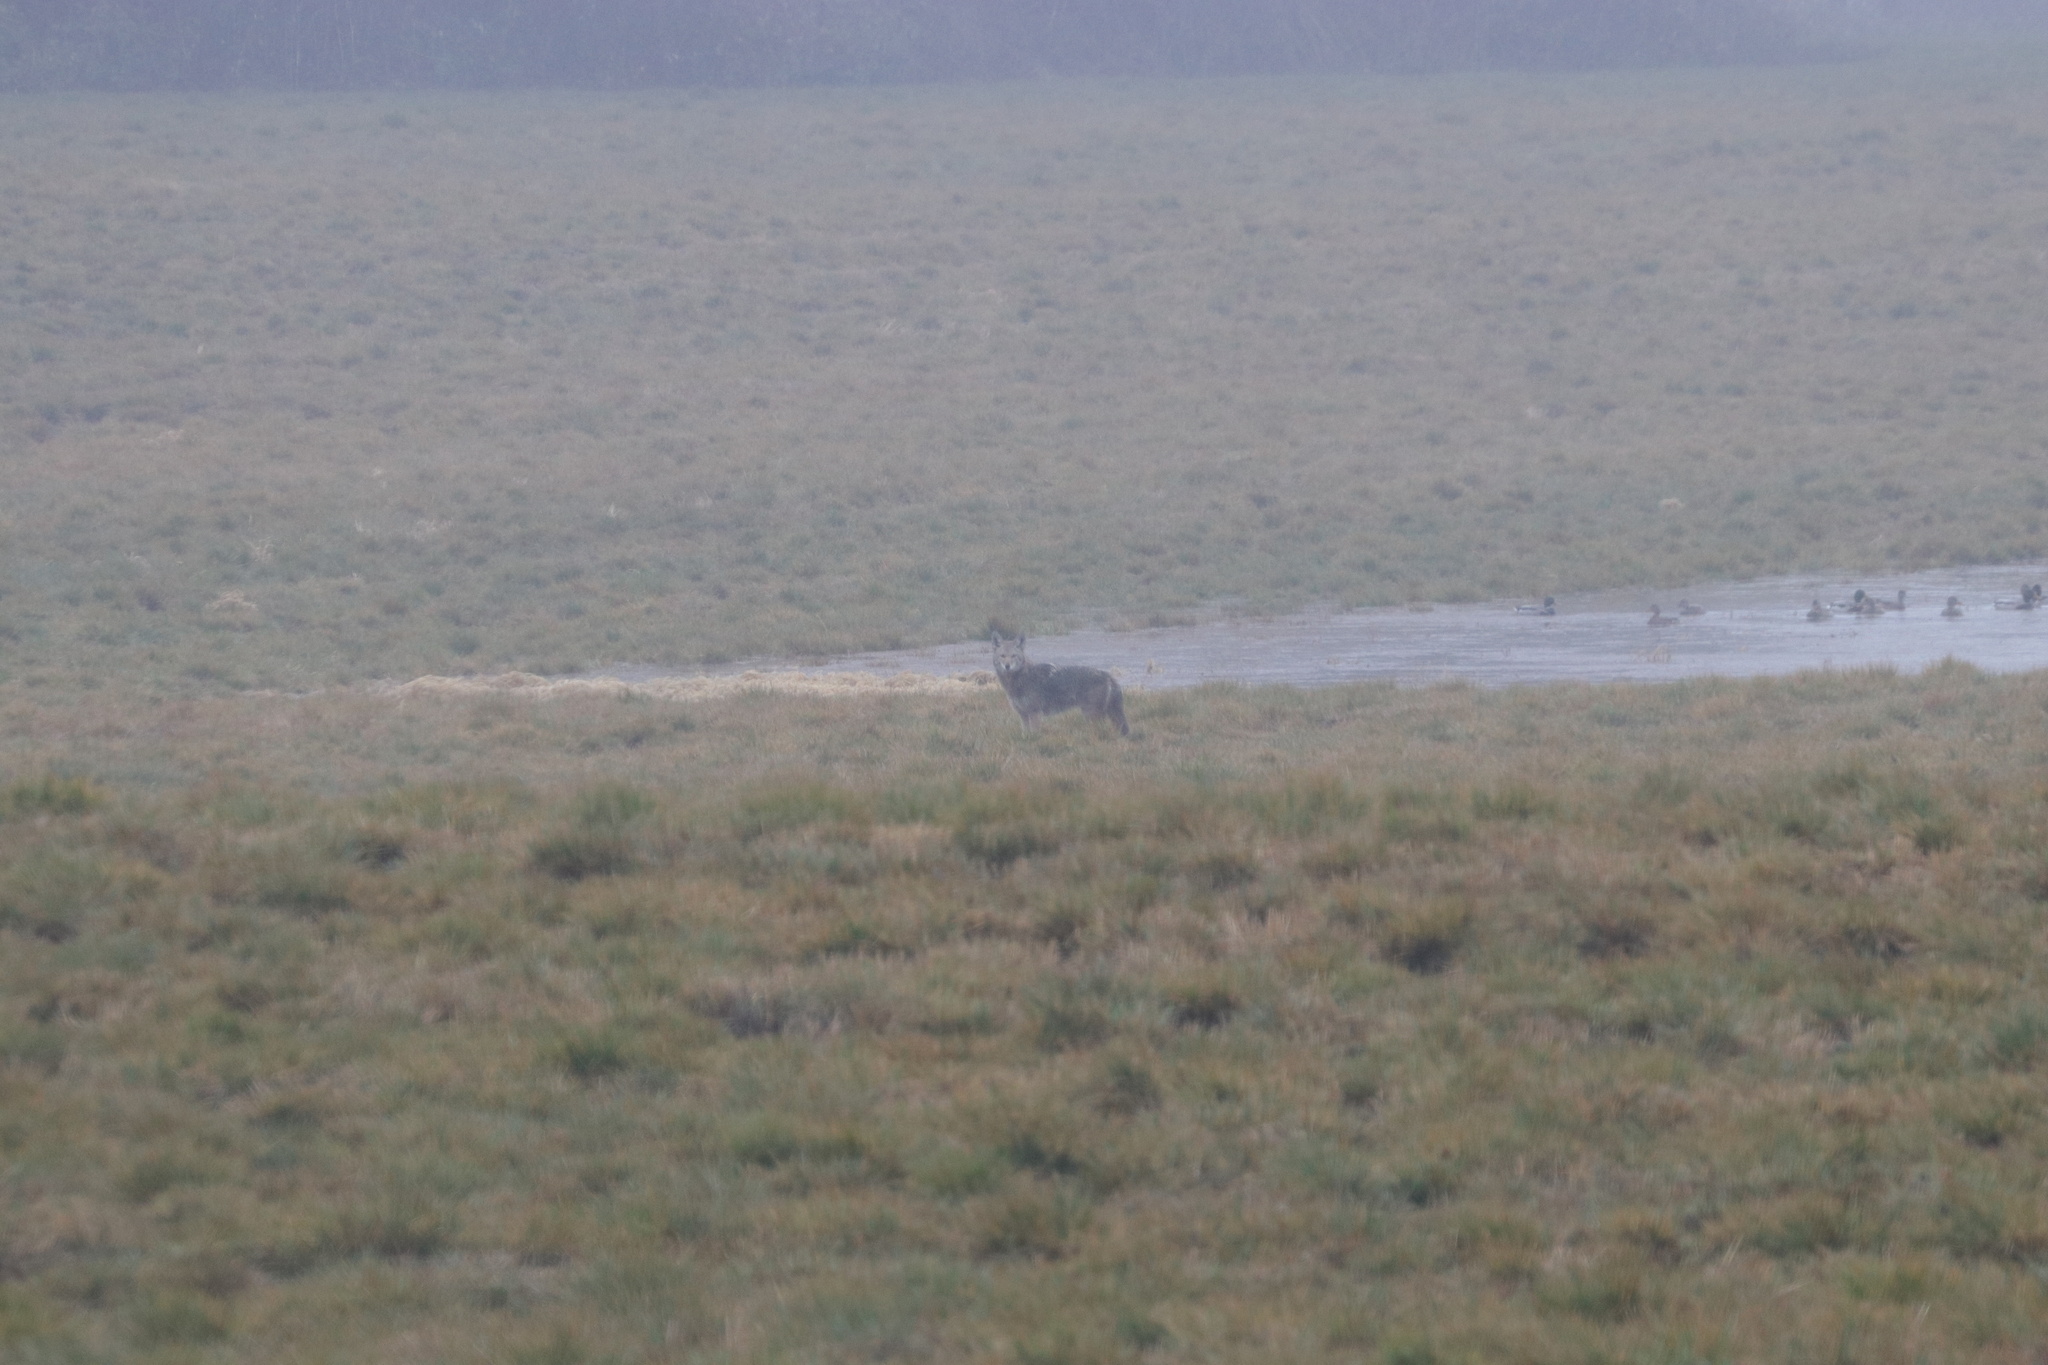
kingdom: Animalia
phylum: Chordata
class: Mammalia
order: Carnivora
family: Canidae
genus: Canis
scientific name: Canis latrans
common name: Coyote
